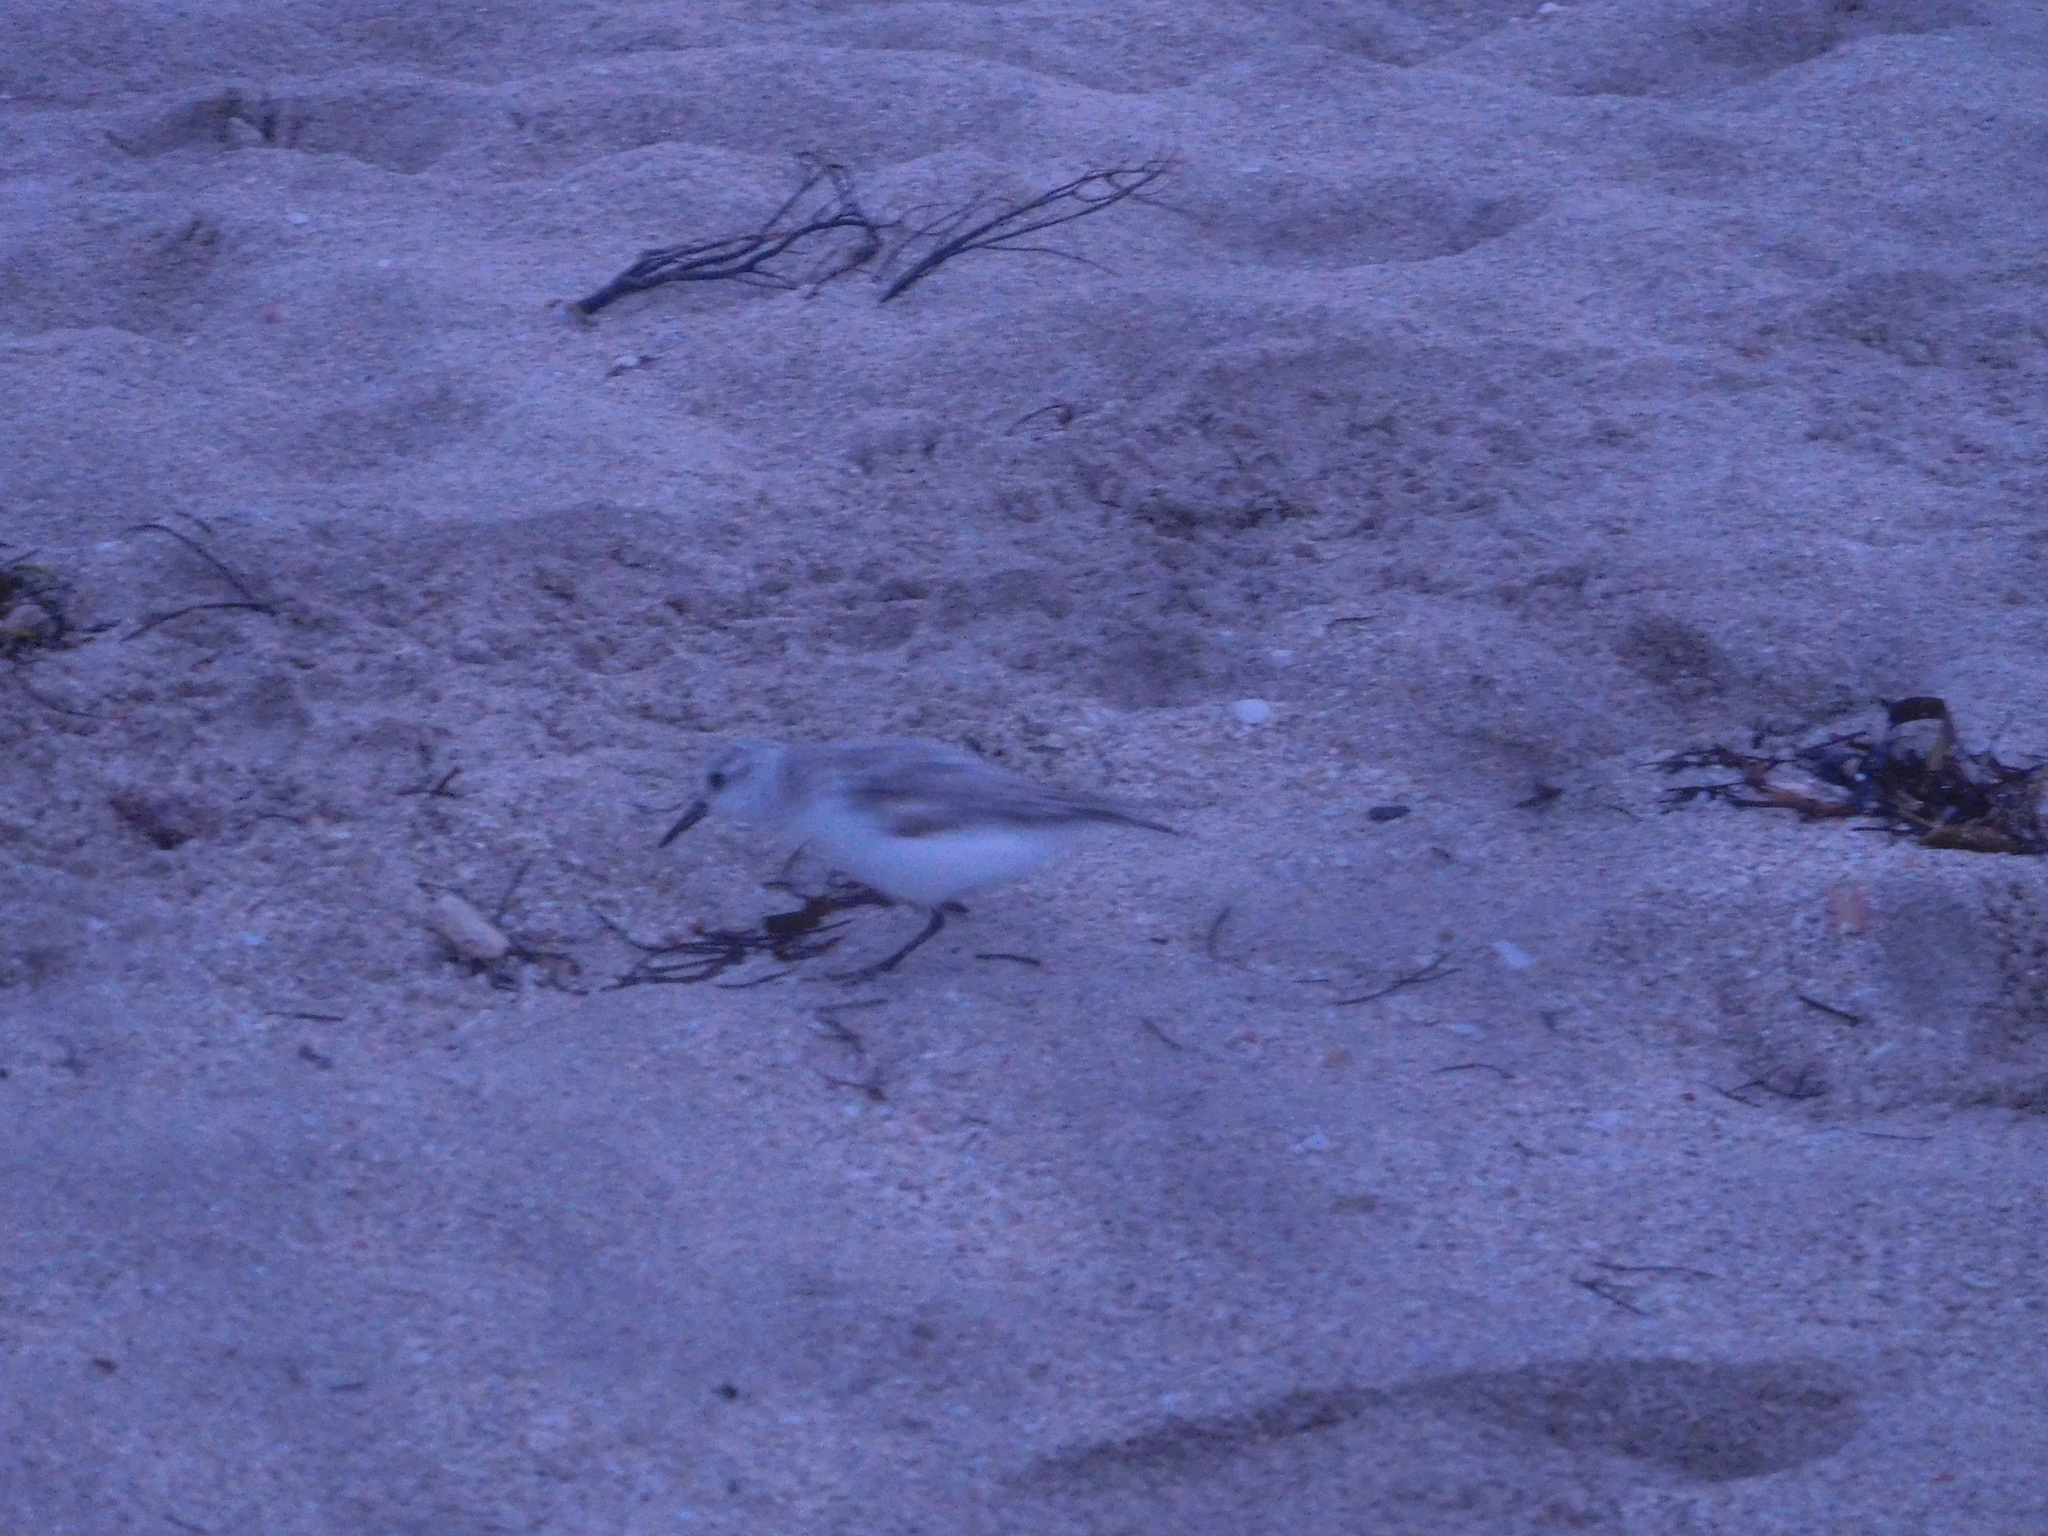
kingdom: Animalia
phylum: Chordata
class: Aves
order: Charadriiformes
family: Scolopacidae
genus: Calidris
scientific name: Calidris alba
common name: Sanderling
